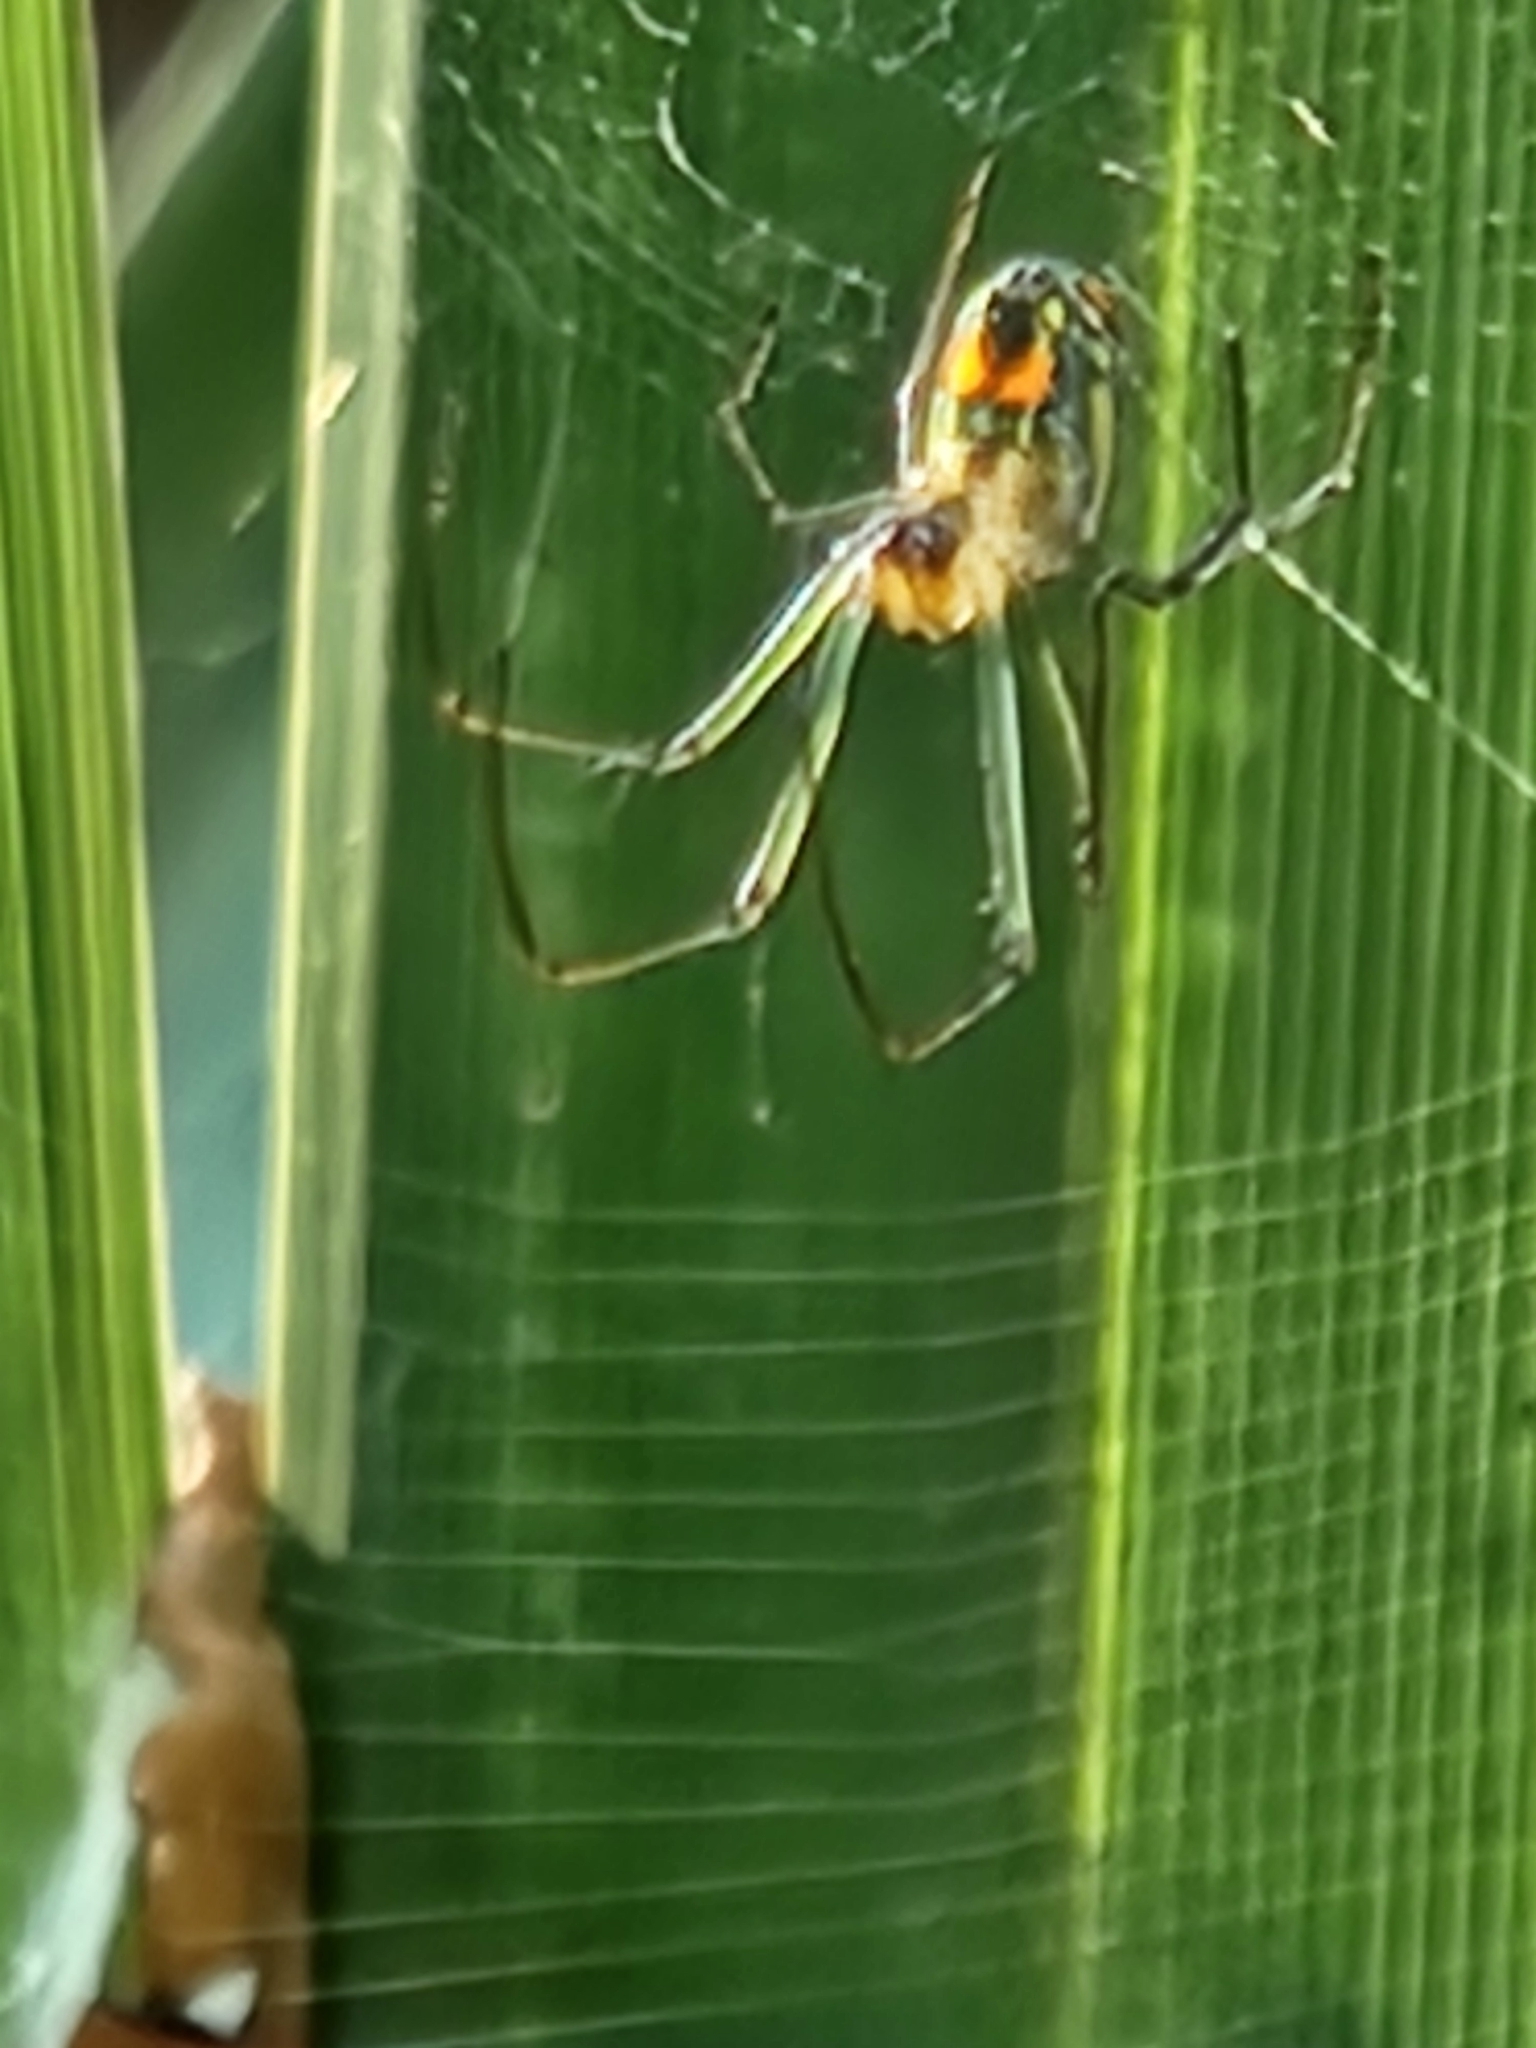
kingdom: Animalia
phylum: Arthropoda
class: Arachnida
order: Araneae
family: Tetragnathidae
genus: Leucauge
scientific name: Leucauge argyrobapta
